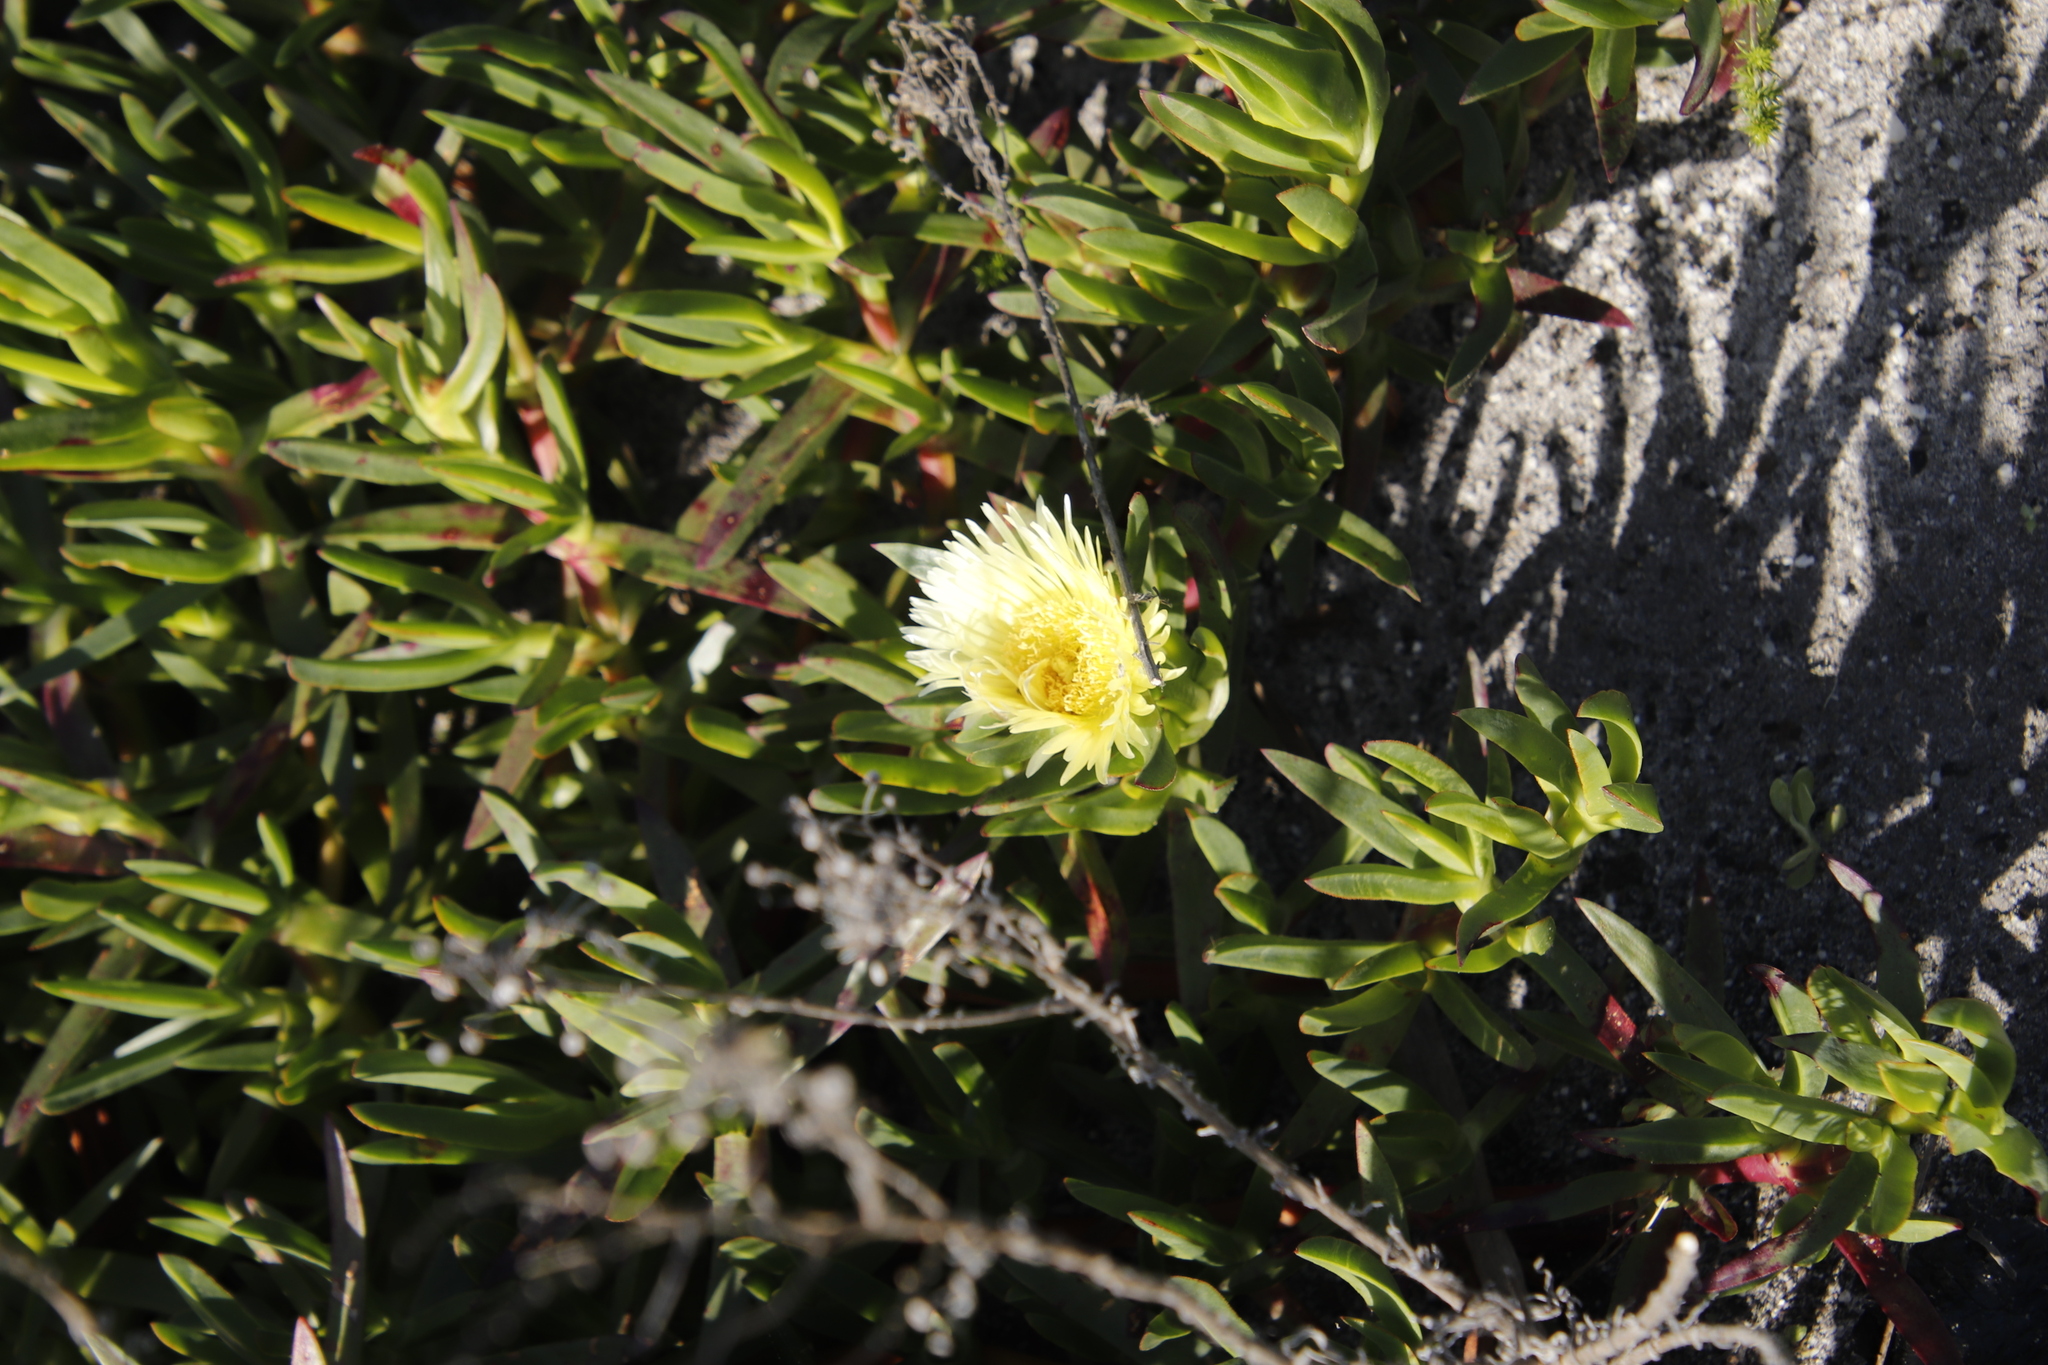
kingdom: Plantae
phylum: Tracheophyta
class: Magnoliopsida
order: Caryophyllales
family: Aizoaceae
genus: Carpobrotus
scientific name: Carpobrotus edulis
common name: Hottentot-fig
